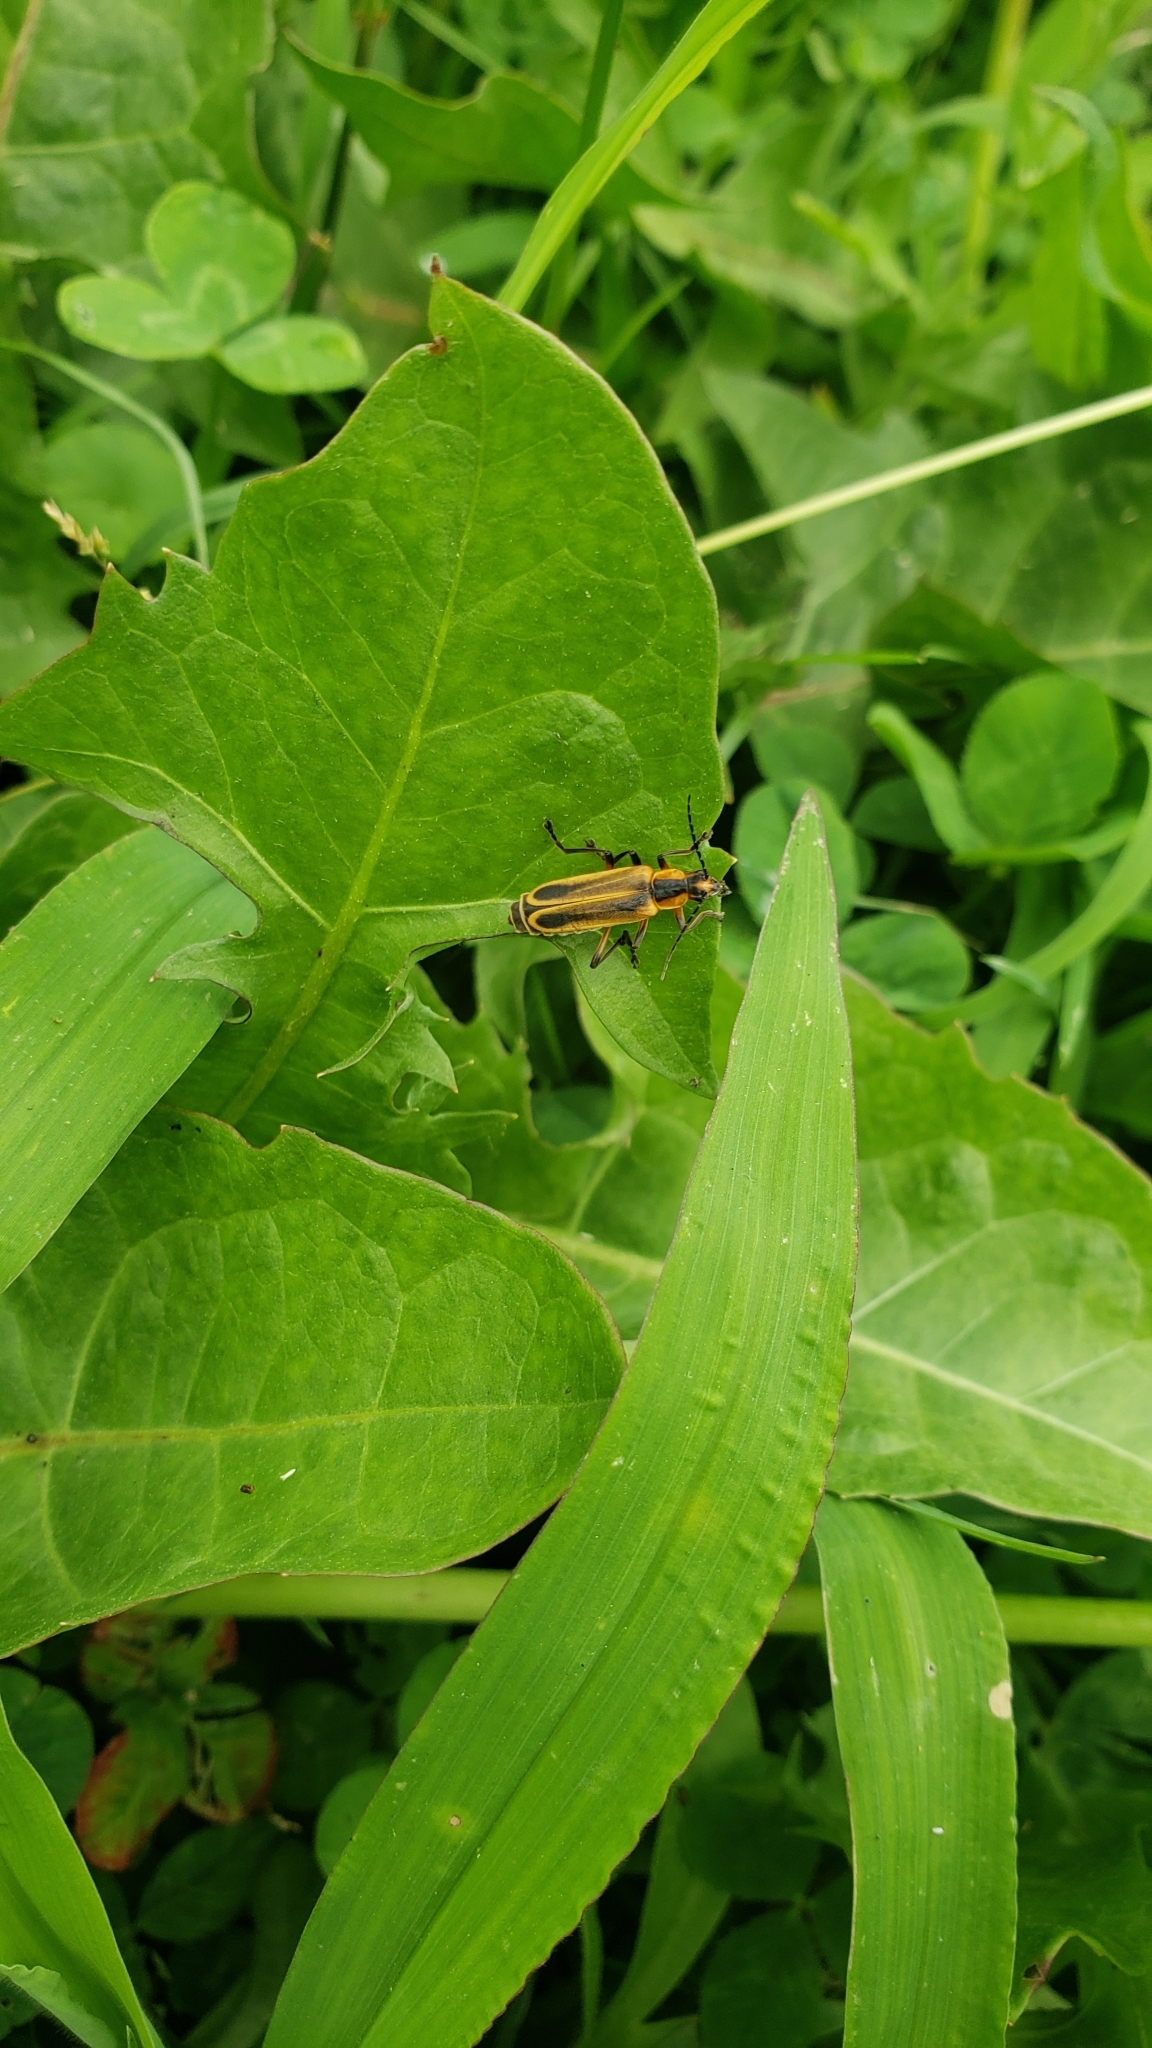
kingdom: Animalia
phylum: Arthropoda
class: Insecta
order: Coleoptera
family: Cantharidae
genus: Chauliognathus
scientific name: Chauliognathus marginatus
